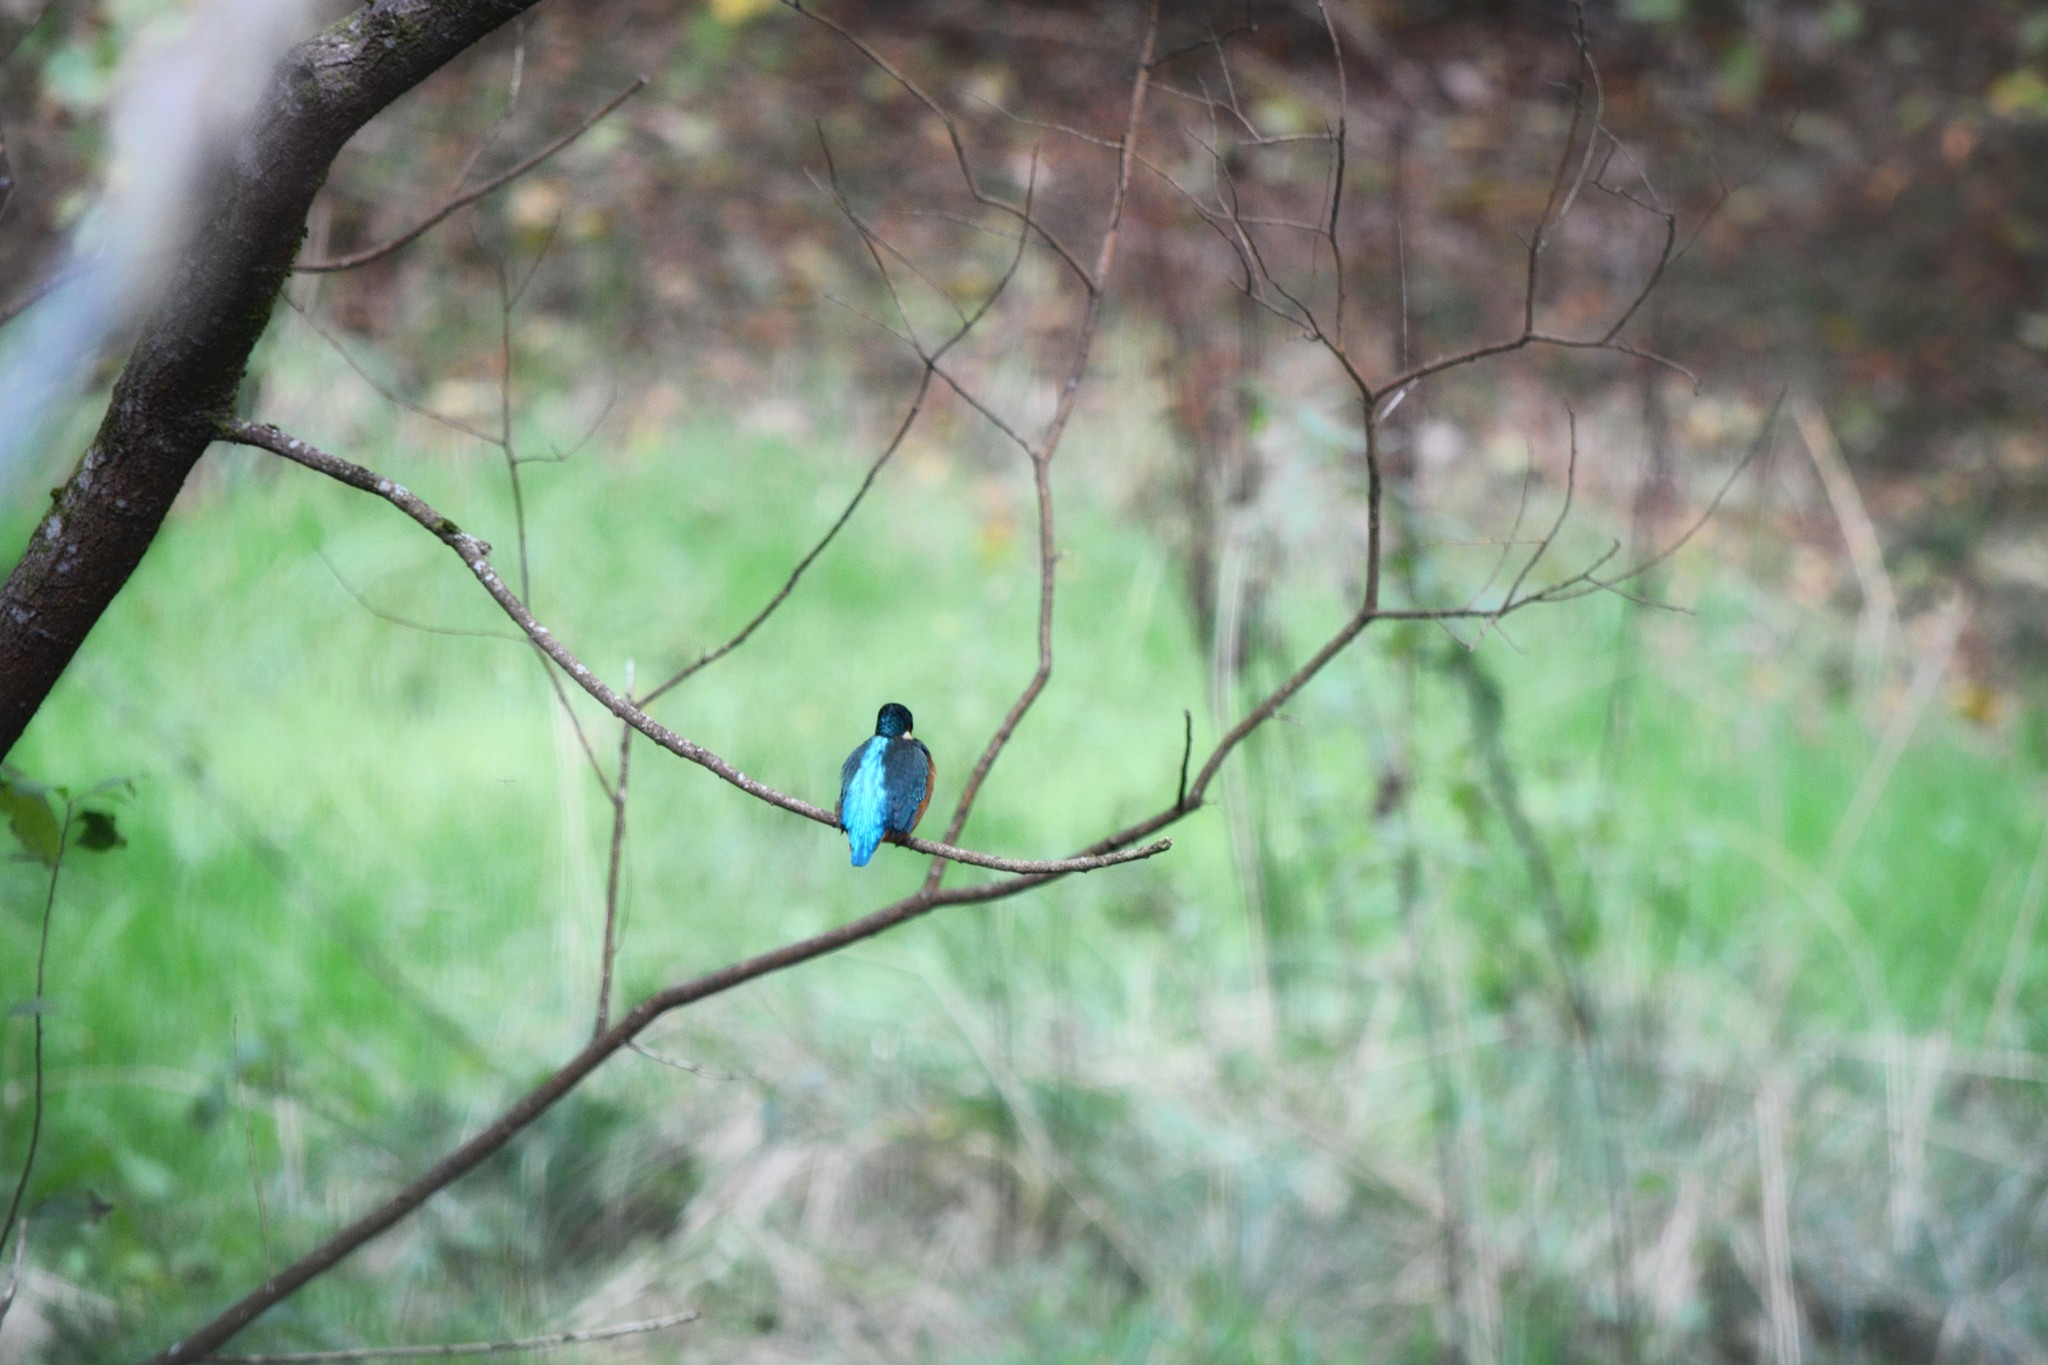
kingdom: Animalia
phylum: Chordata
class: Aves
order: Coraciiformes
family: Alcedinidae
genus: Alcedo
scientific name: Alcedo atthis
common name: Common kingfisher
